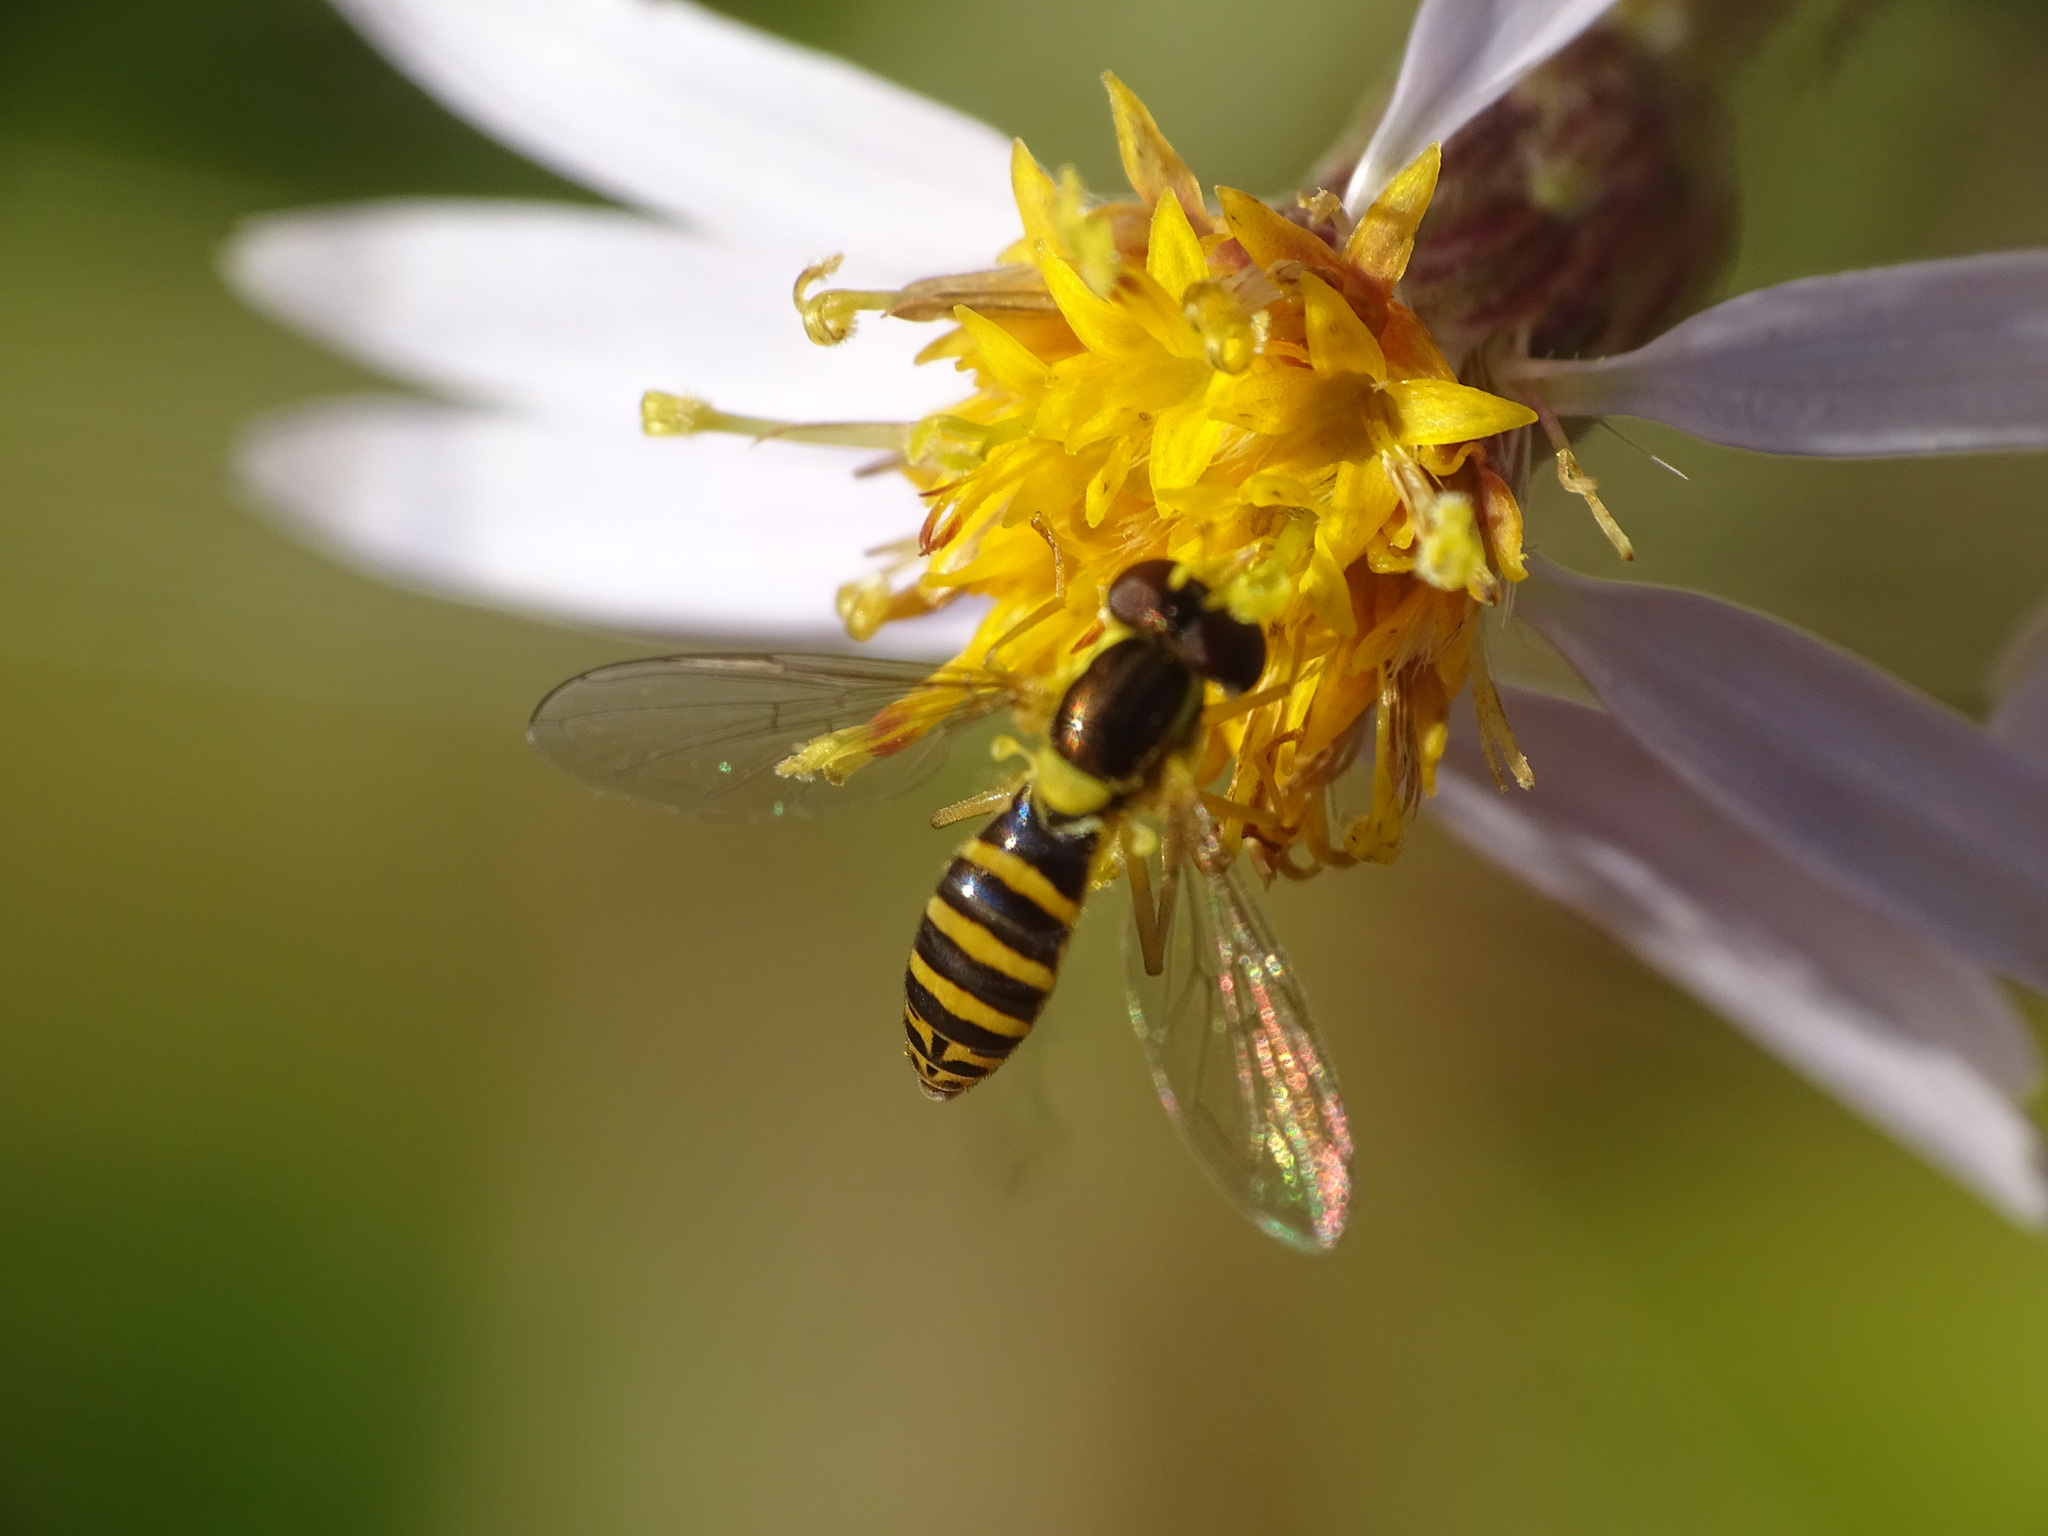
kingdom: Animalia
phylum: Arthropoda
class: Insecta
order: Diptera
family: Syrphidae
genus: Sphaerophoria
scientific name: Sphaerophoria
